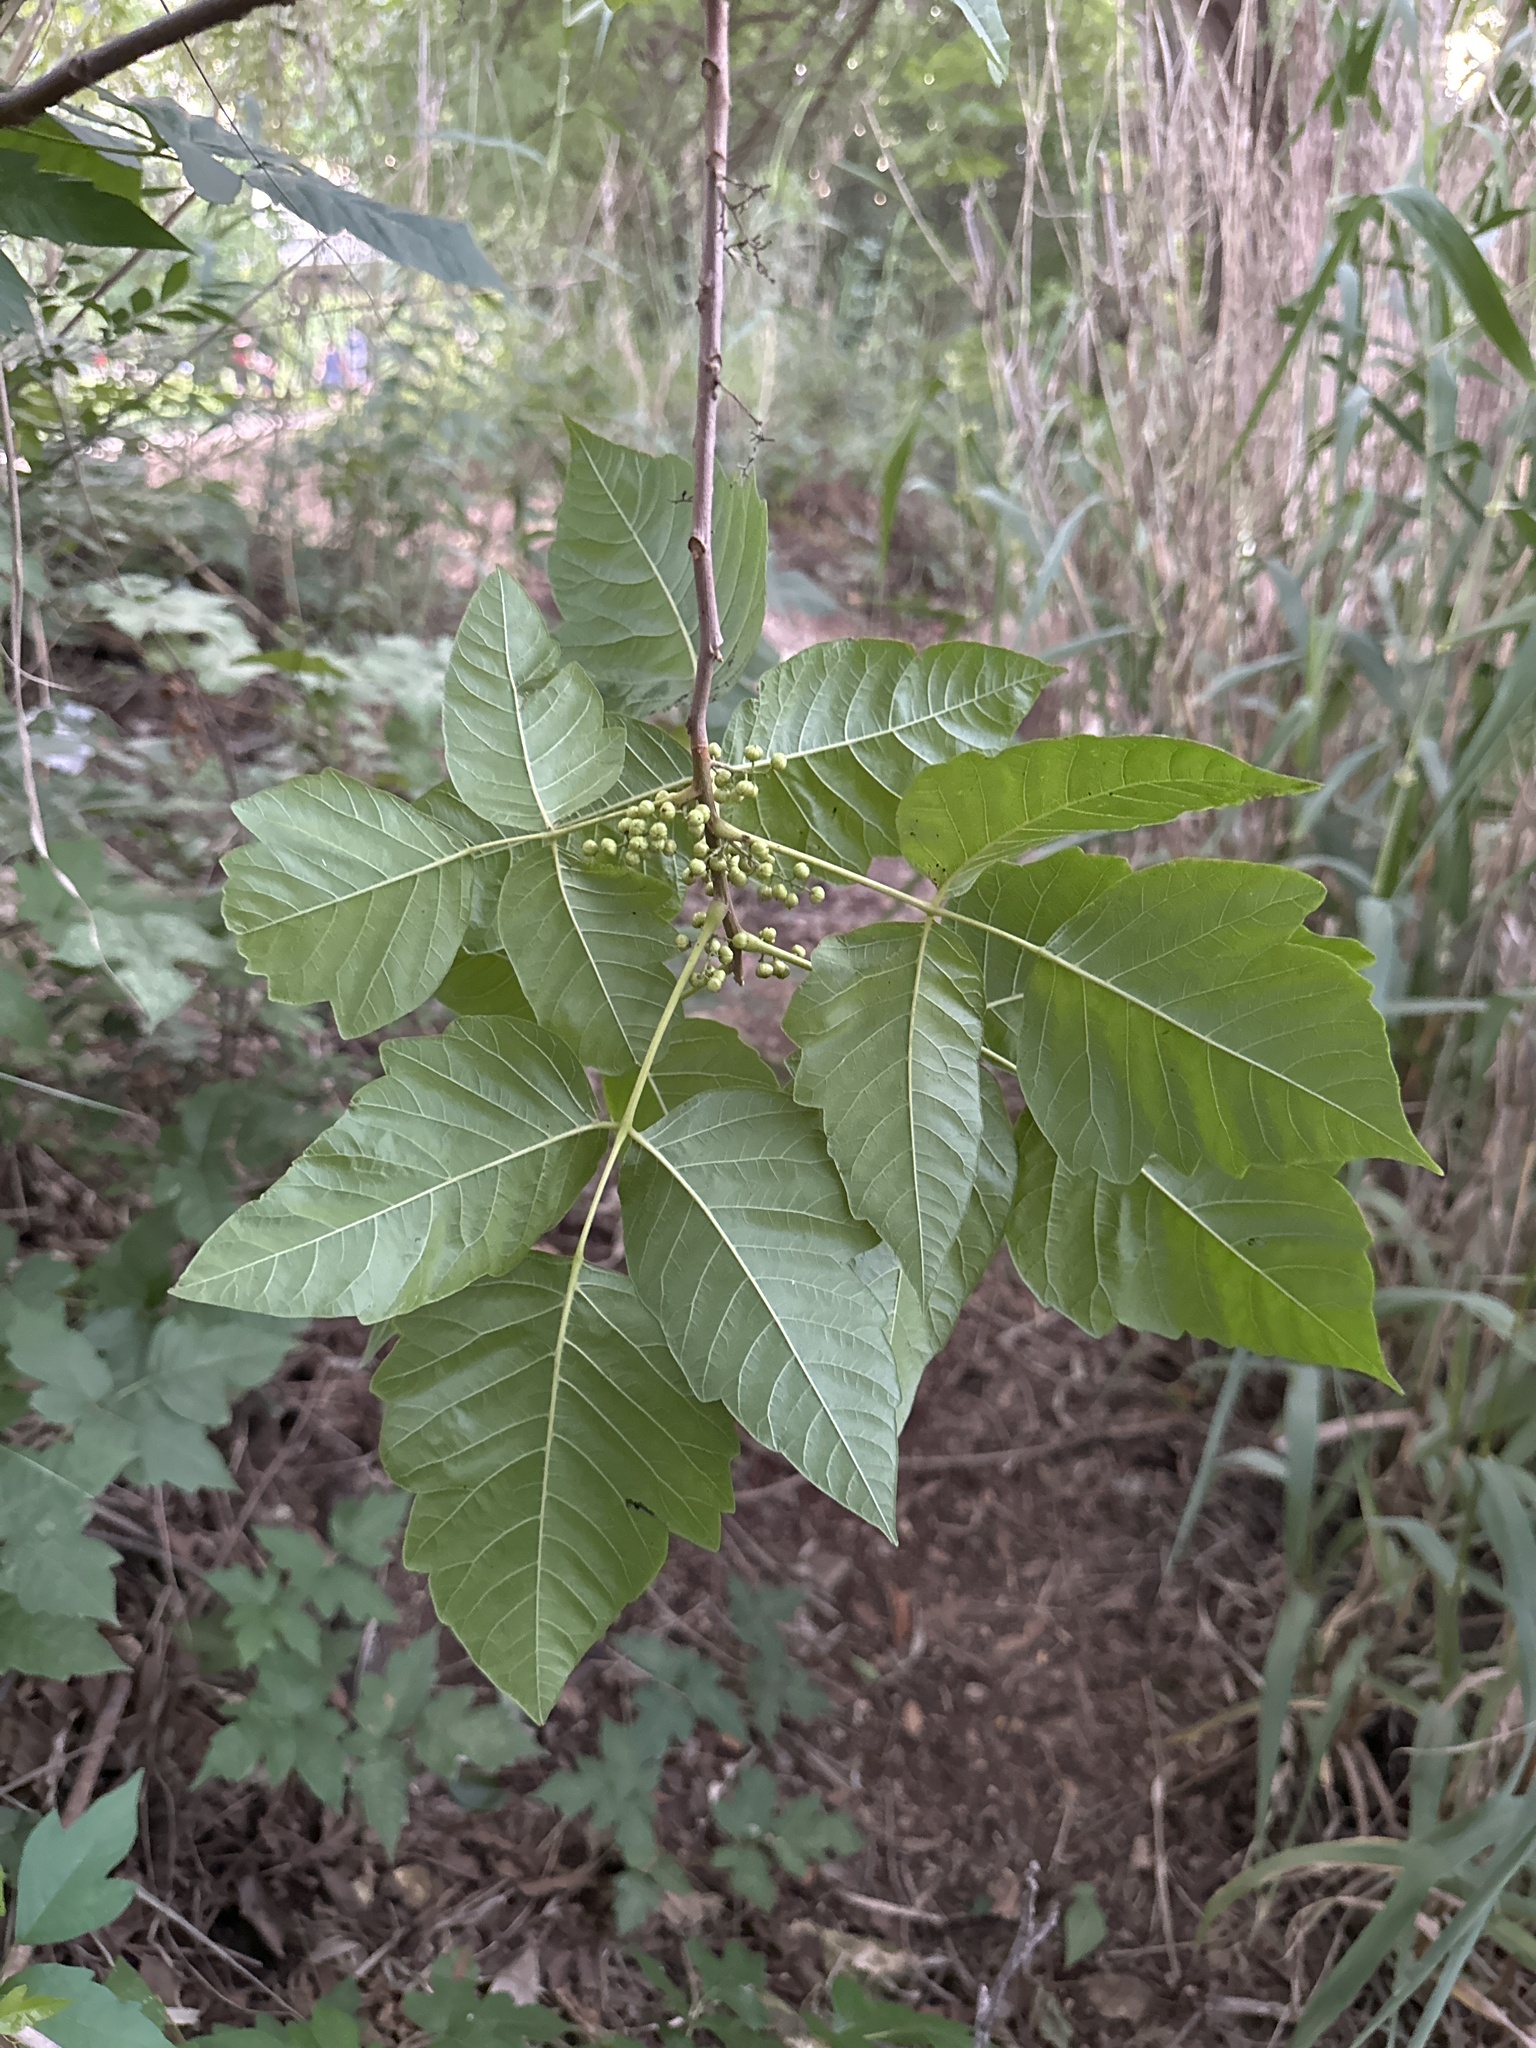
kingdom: Plantae
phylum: Tracheophyta
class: Magnoliopsida
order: Sapindales
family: Anacardiaceae
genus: Toxicodendron
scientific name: Toxicodendron radicans
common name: Poison ivy
